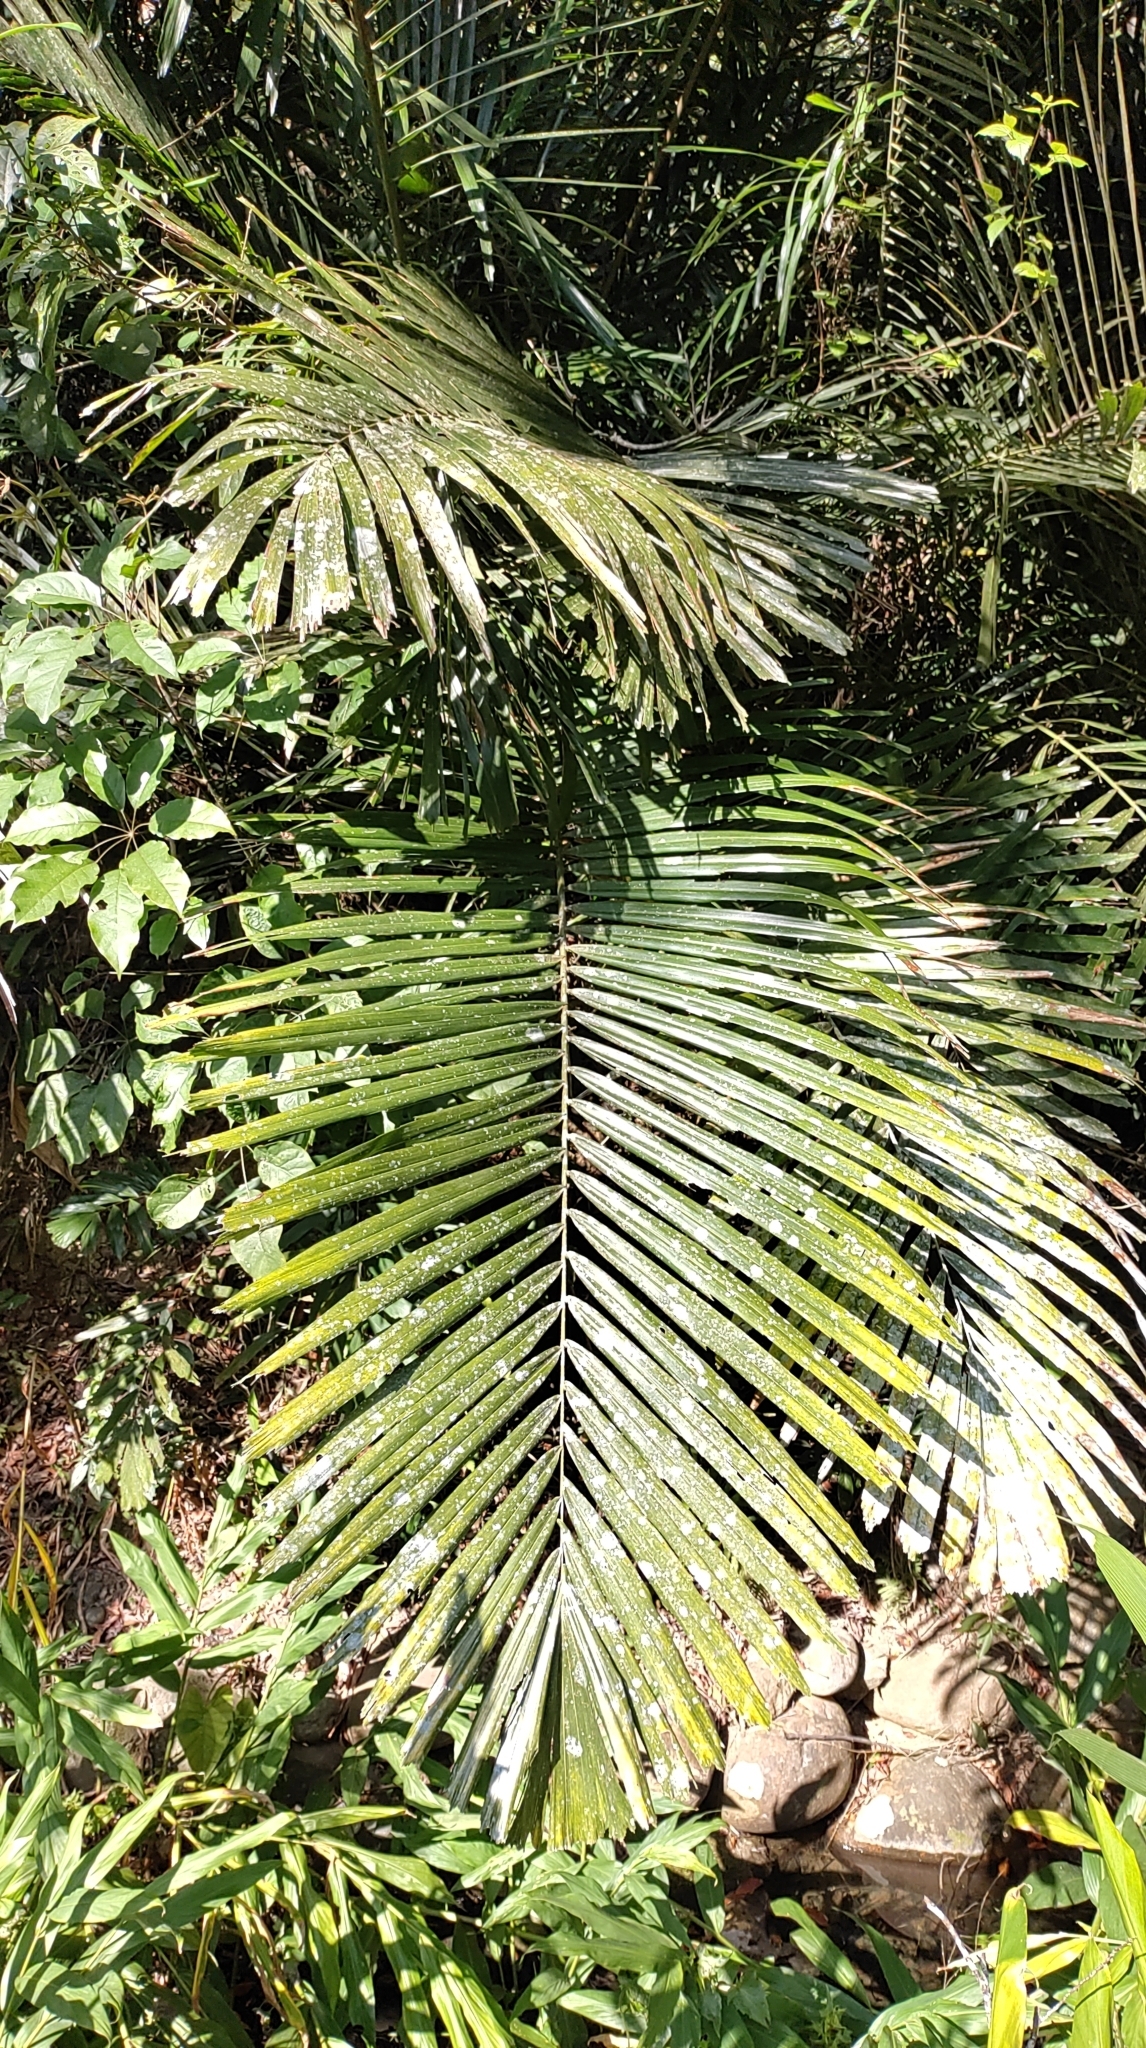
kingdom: Plantae
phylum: Tracheophyta
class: Liliopsida
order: Arecales
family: Arecaceae
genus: Arenga
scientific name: Arenga engleri
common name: Formosan sugar palm
